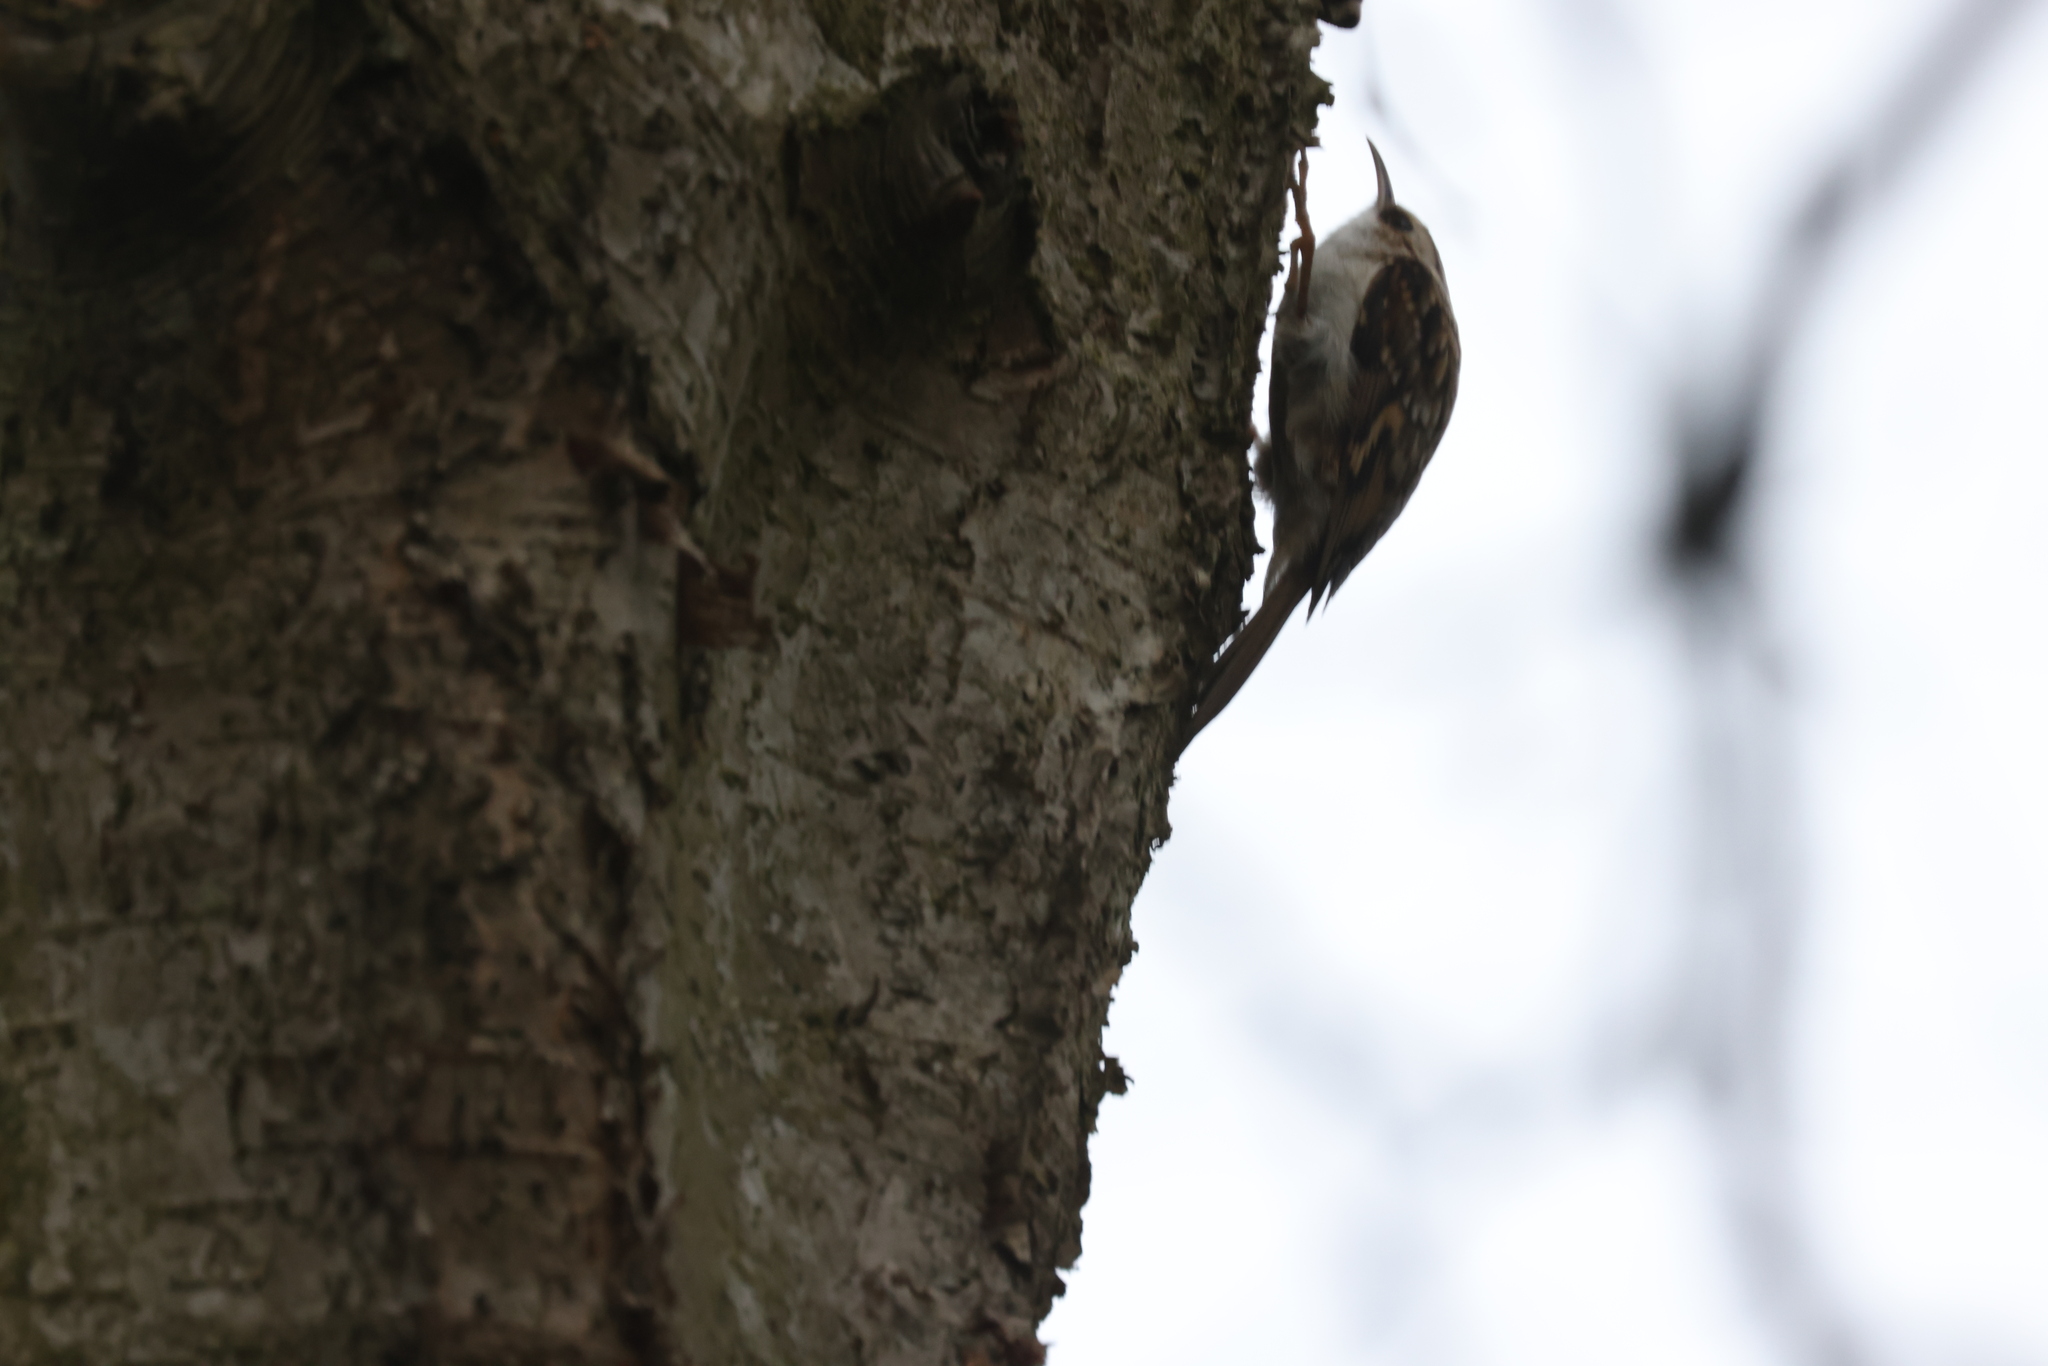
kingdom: Animalia
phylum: Chordata
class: Aves
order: Passeriformes
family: Certhiidae
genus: Certhia
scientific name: Certhia familiaris
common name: Eurasian treecreeper
